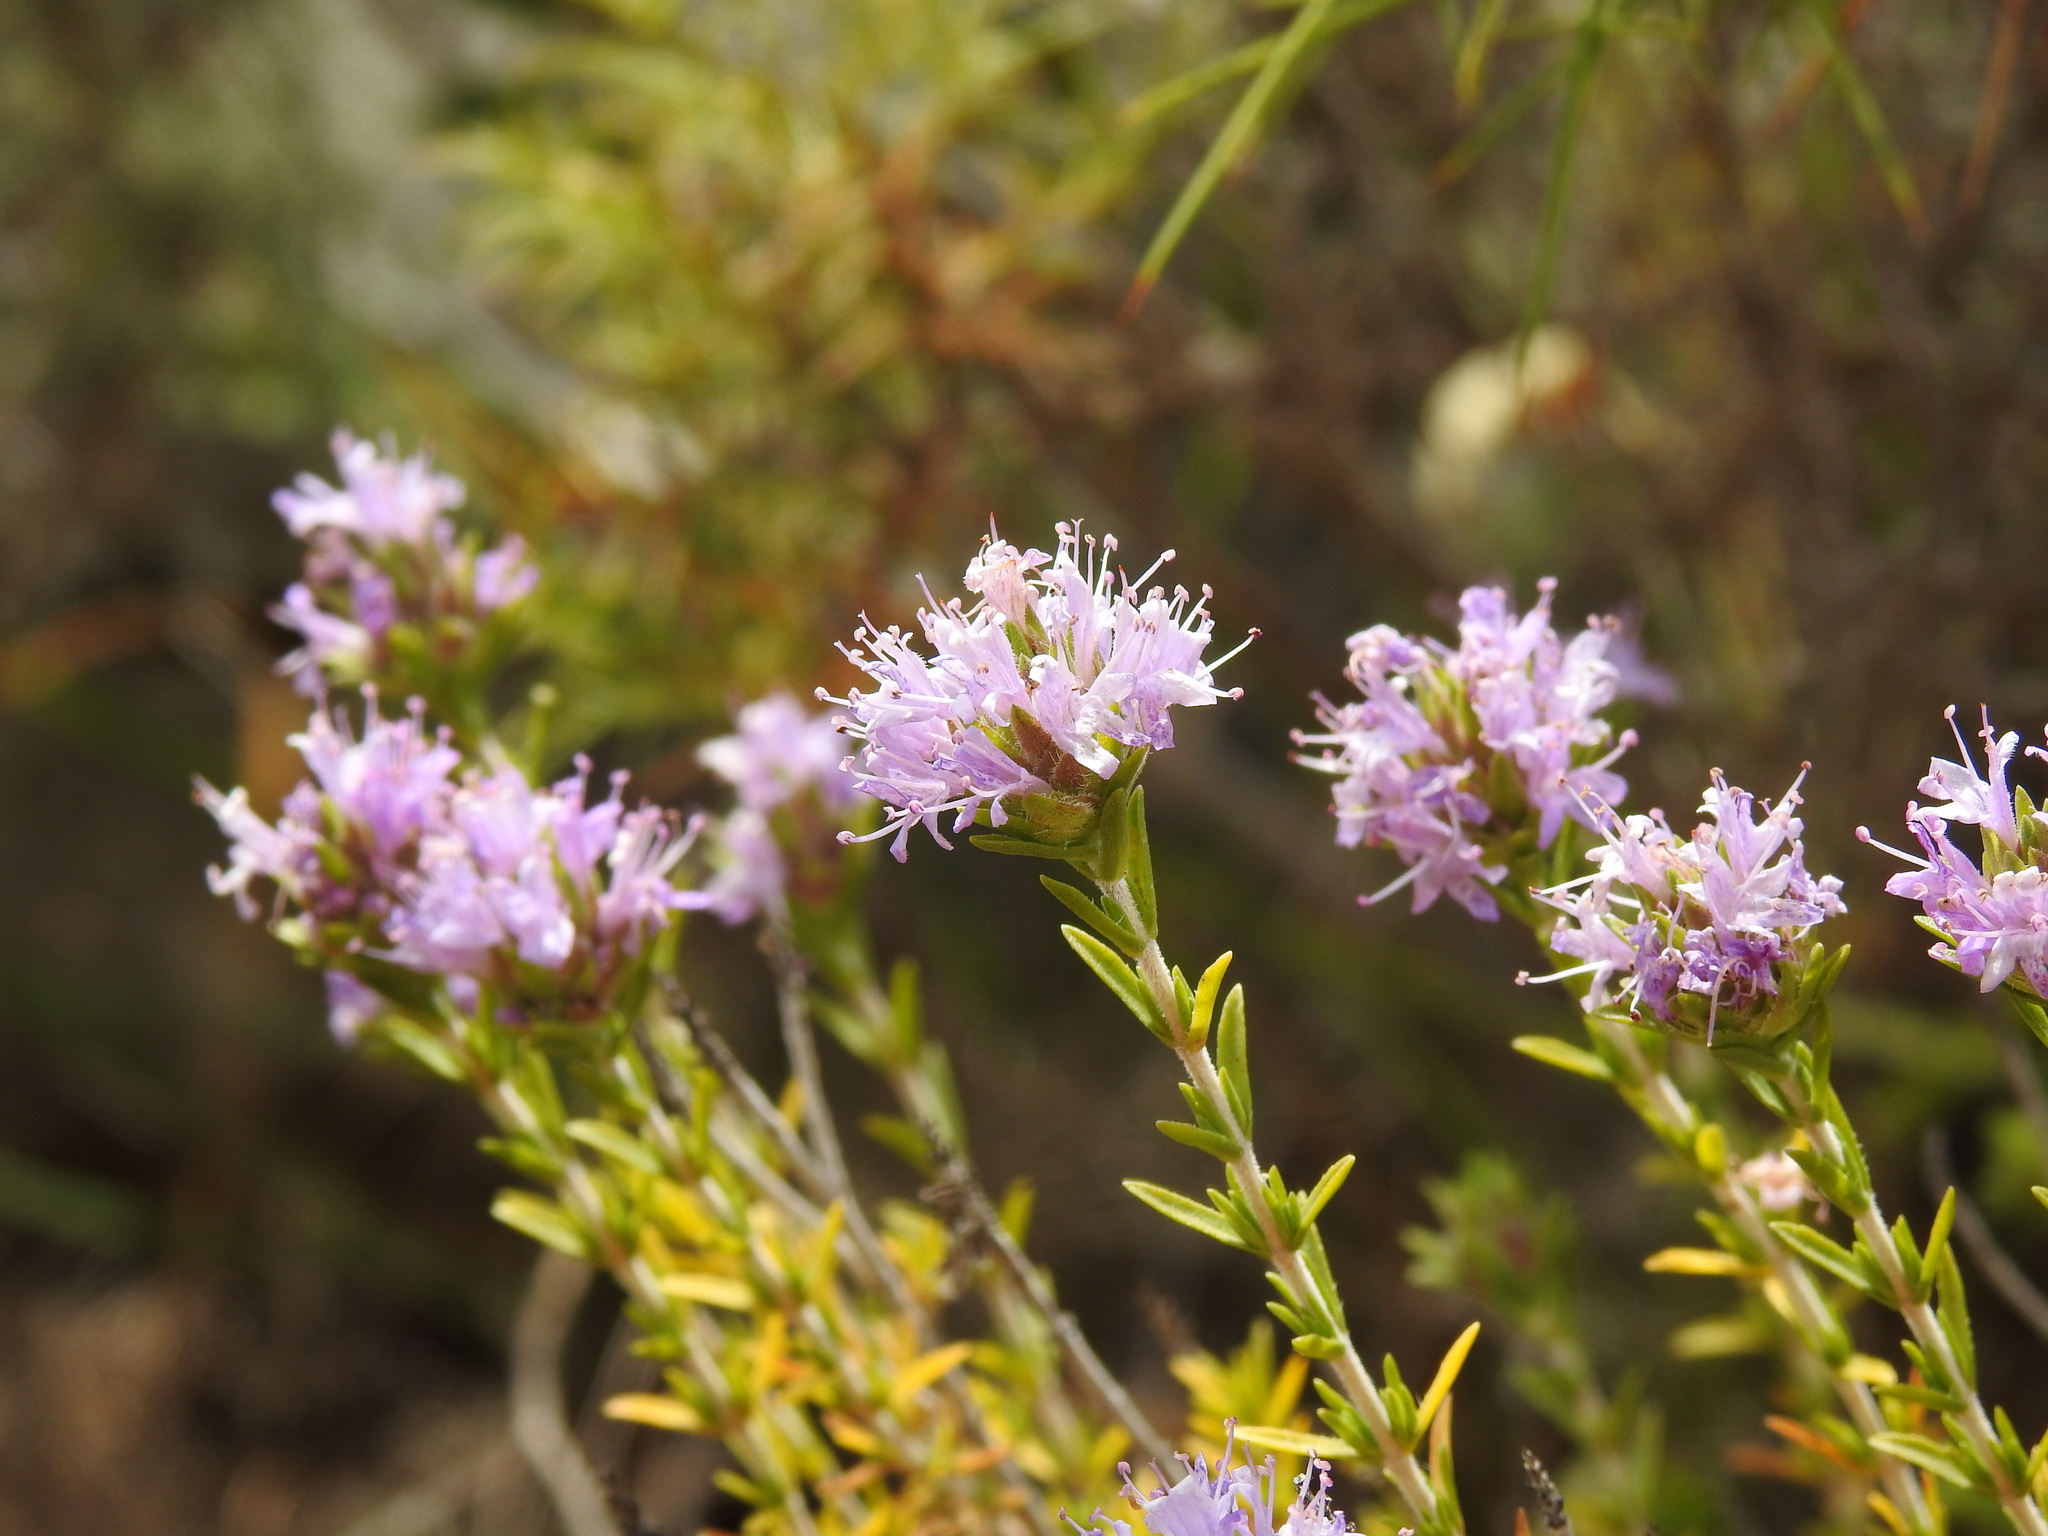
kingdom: Plantae
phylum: Tracheophyta
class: Magnoliopsida
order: Lamiales
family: Lamiaceae
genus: Thymbra
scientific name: Thymbra capitata
